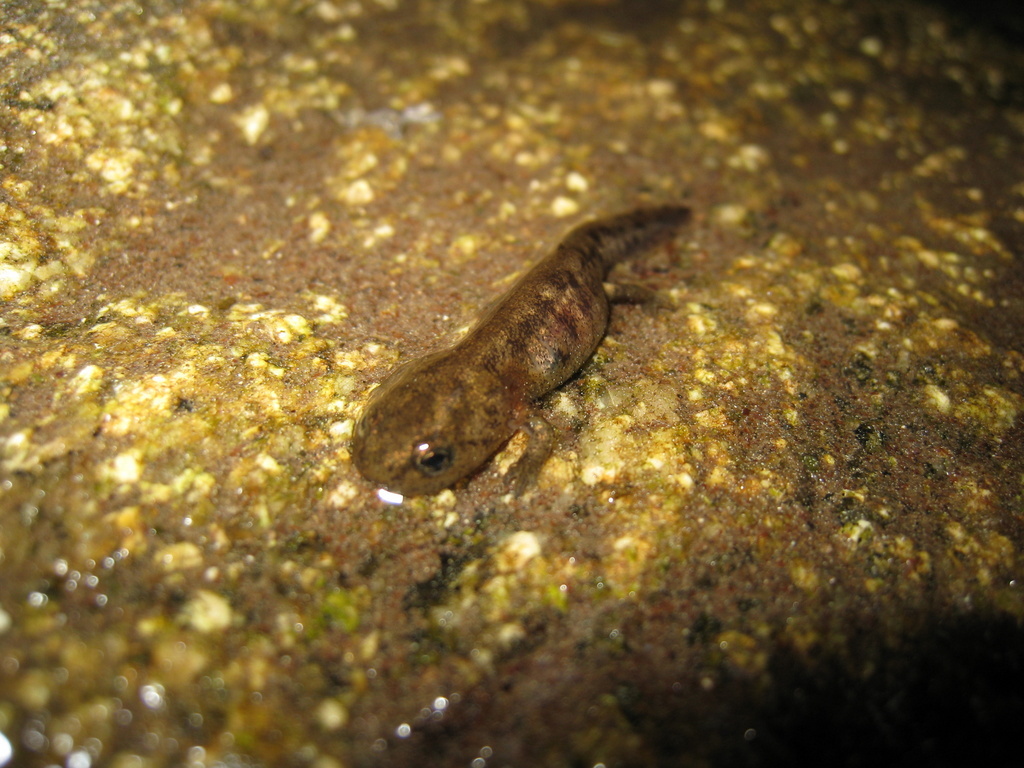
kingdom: Animalia
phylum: Chordata
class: Amphibia
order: Caudata
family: Salamandridae
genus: Salamandra
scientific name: Salamandra corsica
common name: Corsican fire salamander
